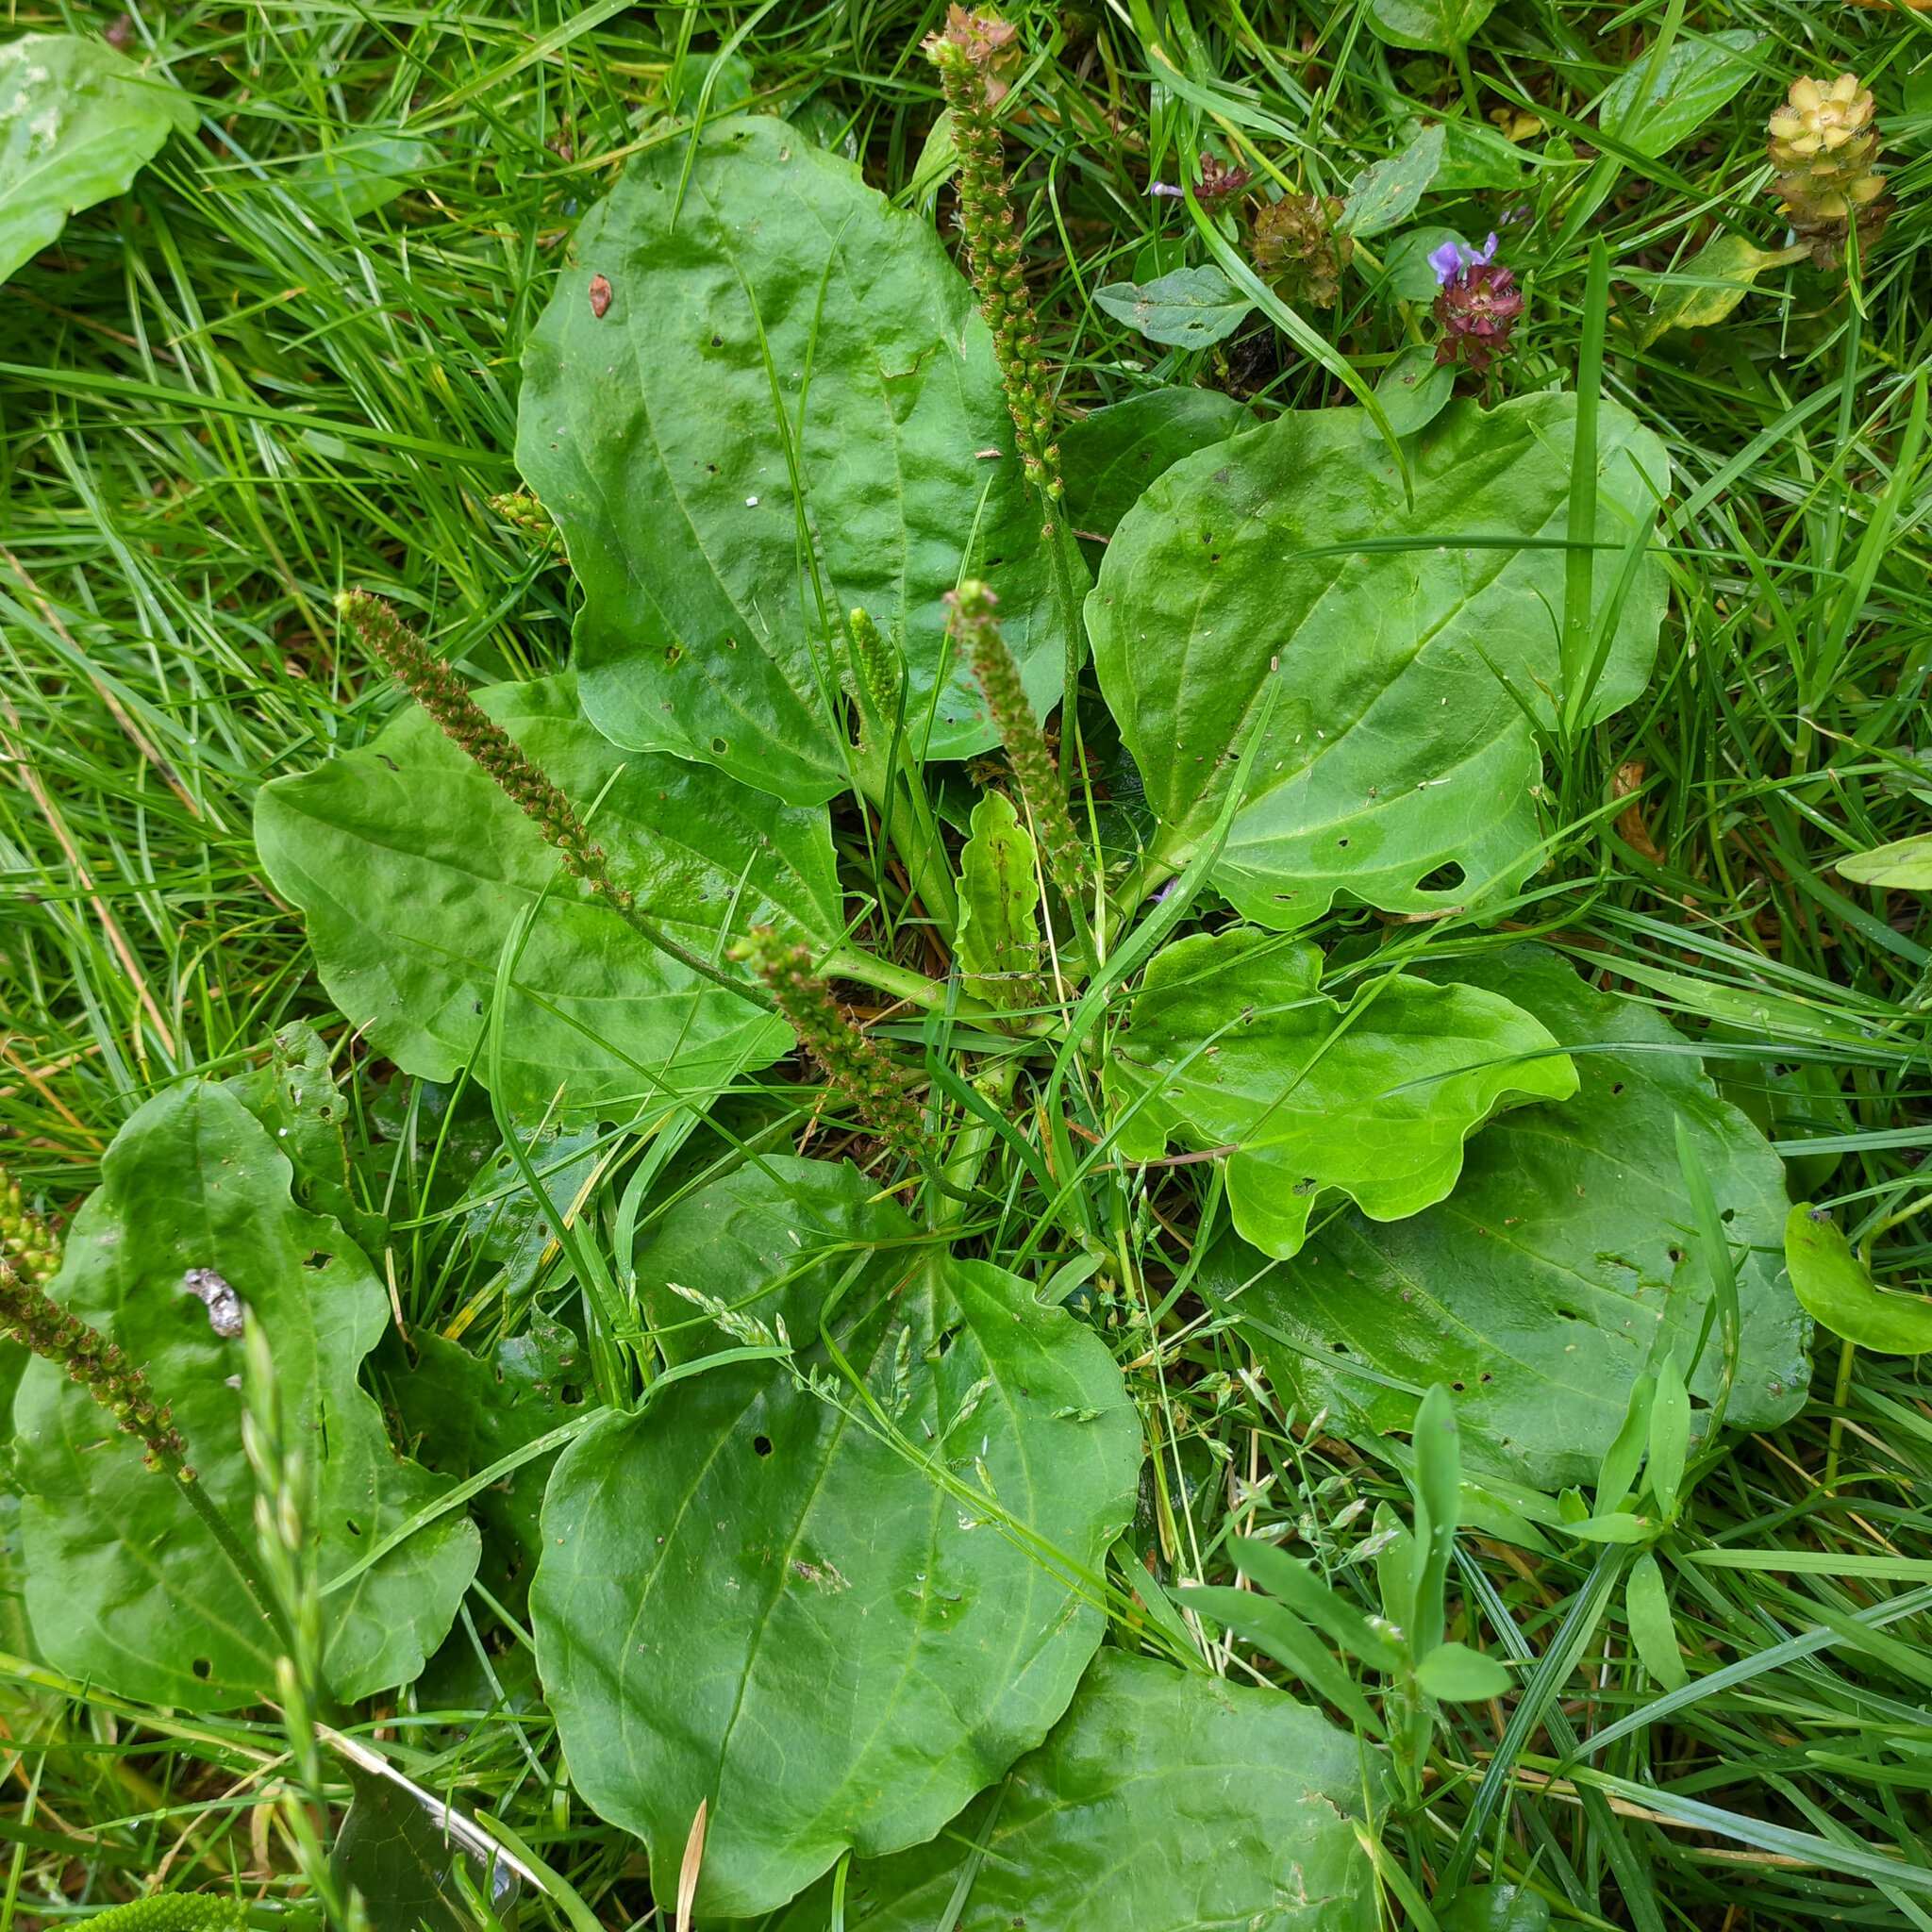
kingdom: Plantae
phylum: Tracheophyta
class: Magnoliopsida
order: Lamiales
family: Plantaginaceae
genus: Plantago
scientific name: Plantago major
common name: Common plantain
